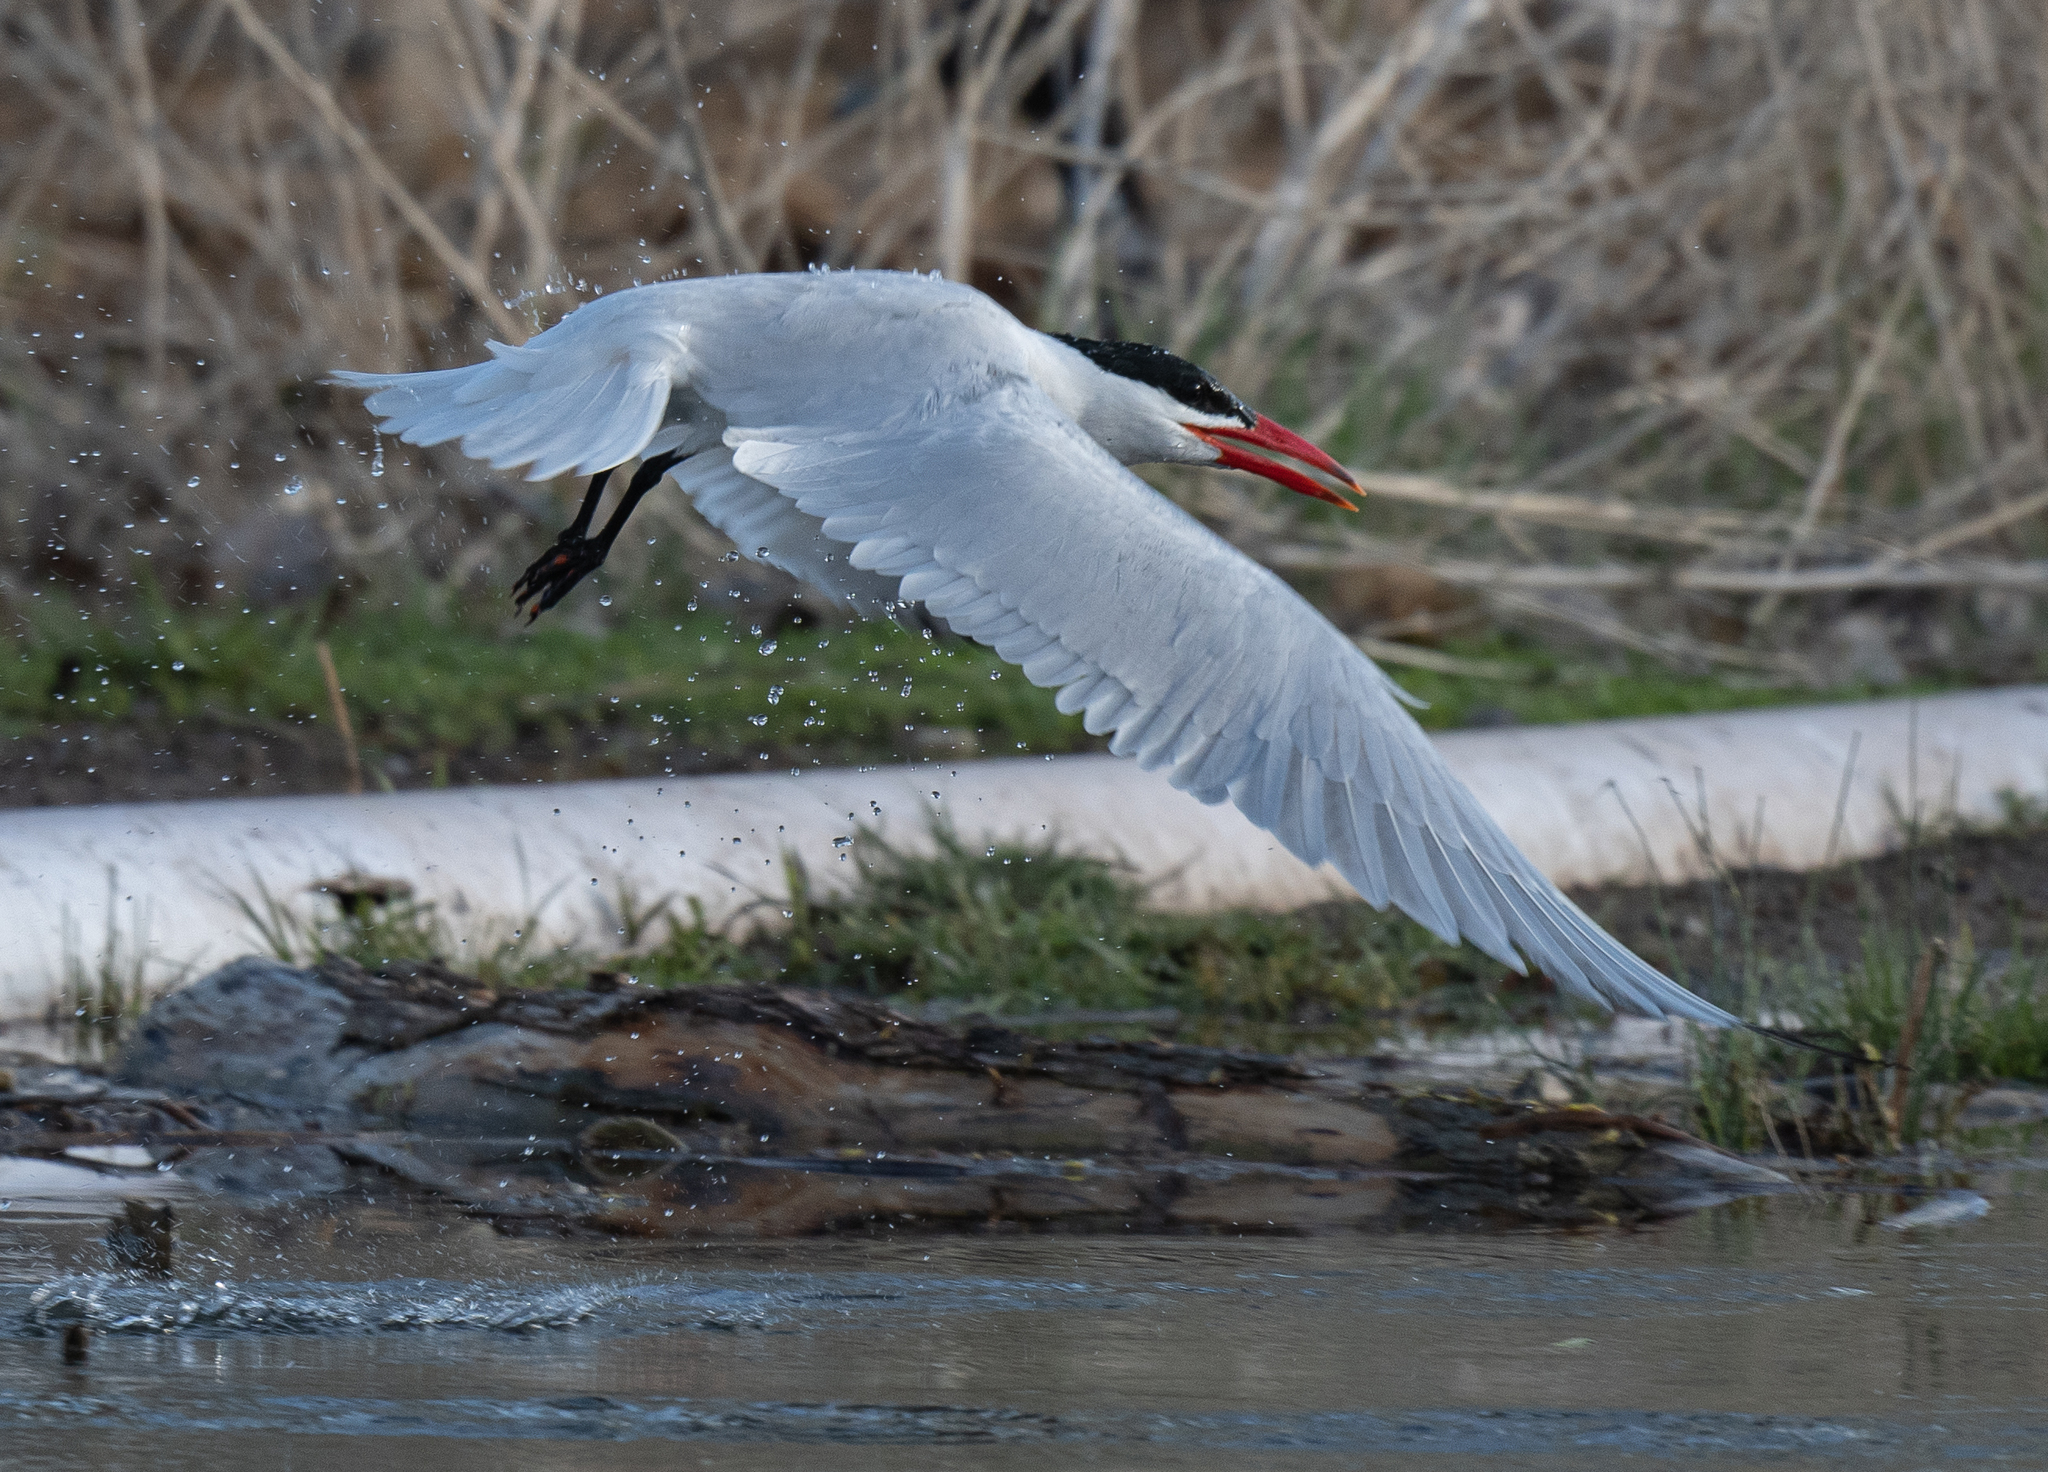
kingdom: Animalia
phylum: Chordata
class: Aves
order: Charadriiformes
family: Laridae
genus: Hydroprogne
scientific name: Hydroprogne caspia
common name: Caspian tern
